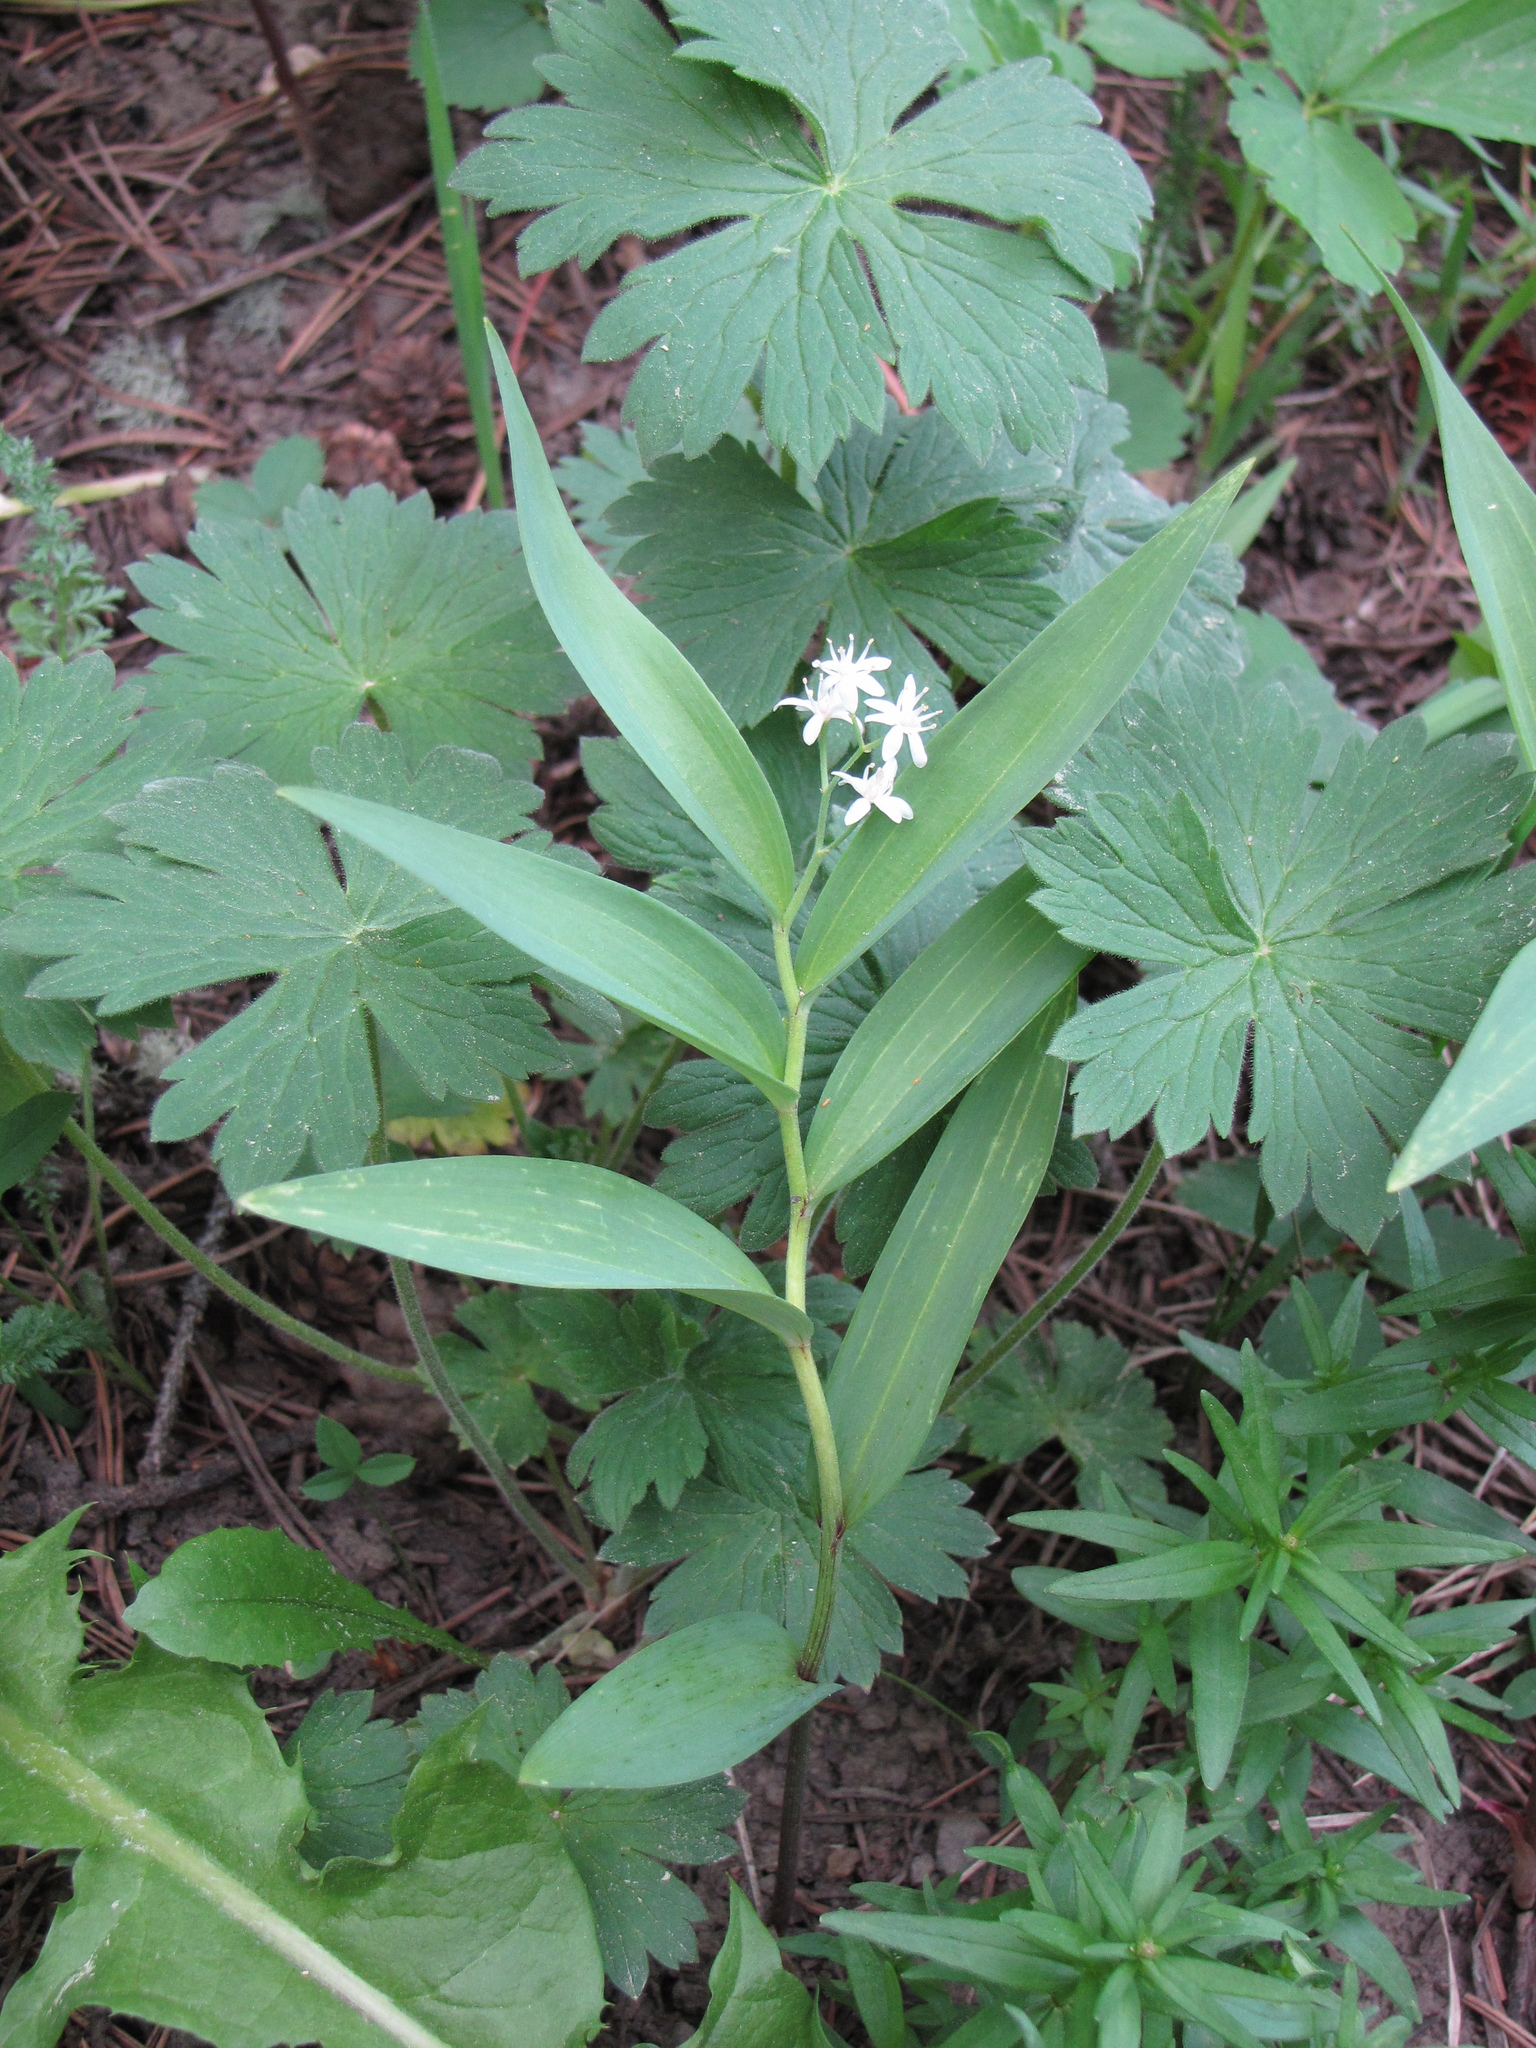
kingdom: Plantae
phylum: Tracheophyta
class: Liliopsida
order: Asparagales
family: Asparagaceae
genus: Maianthemum
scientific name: Maianthemum stellatum
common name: Little false solomon's seal
